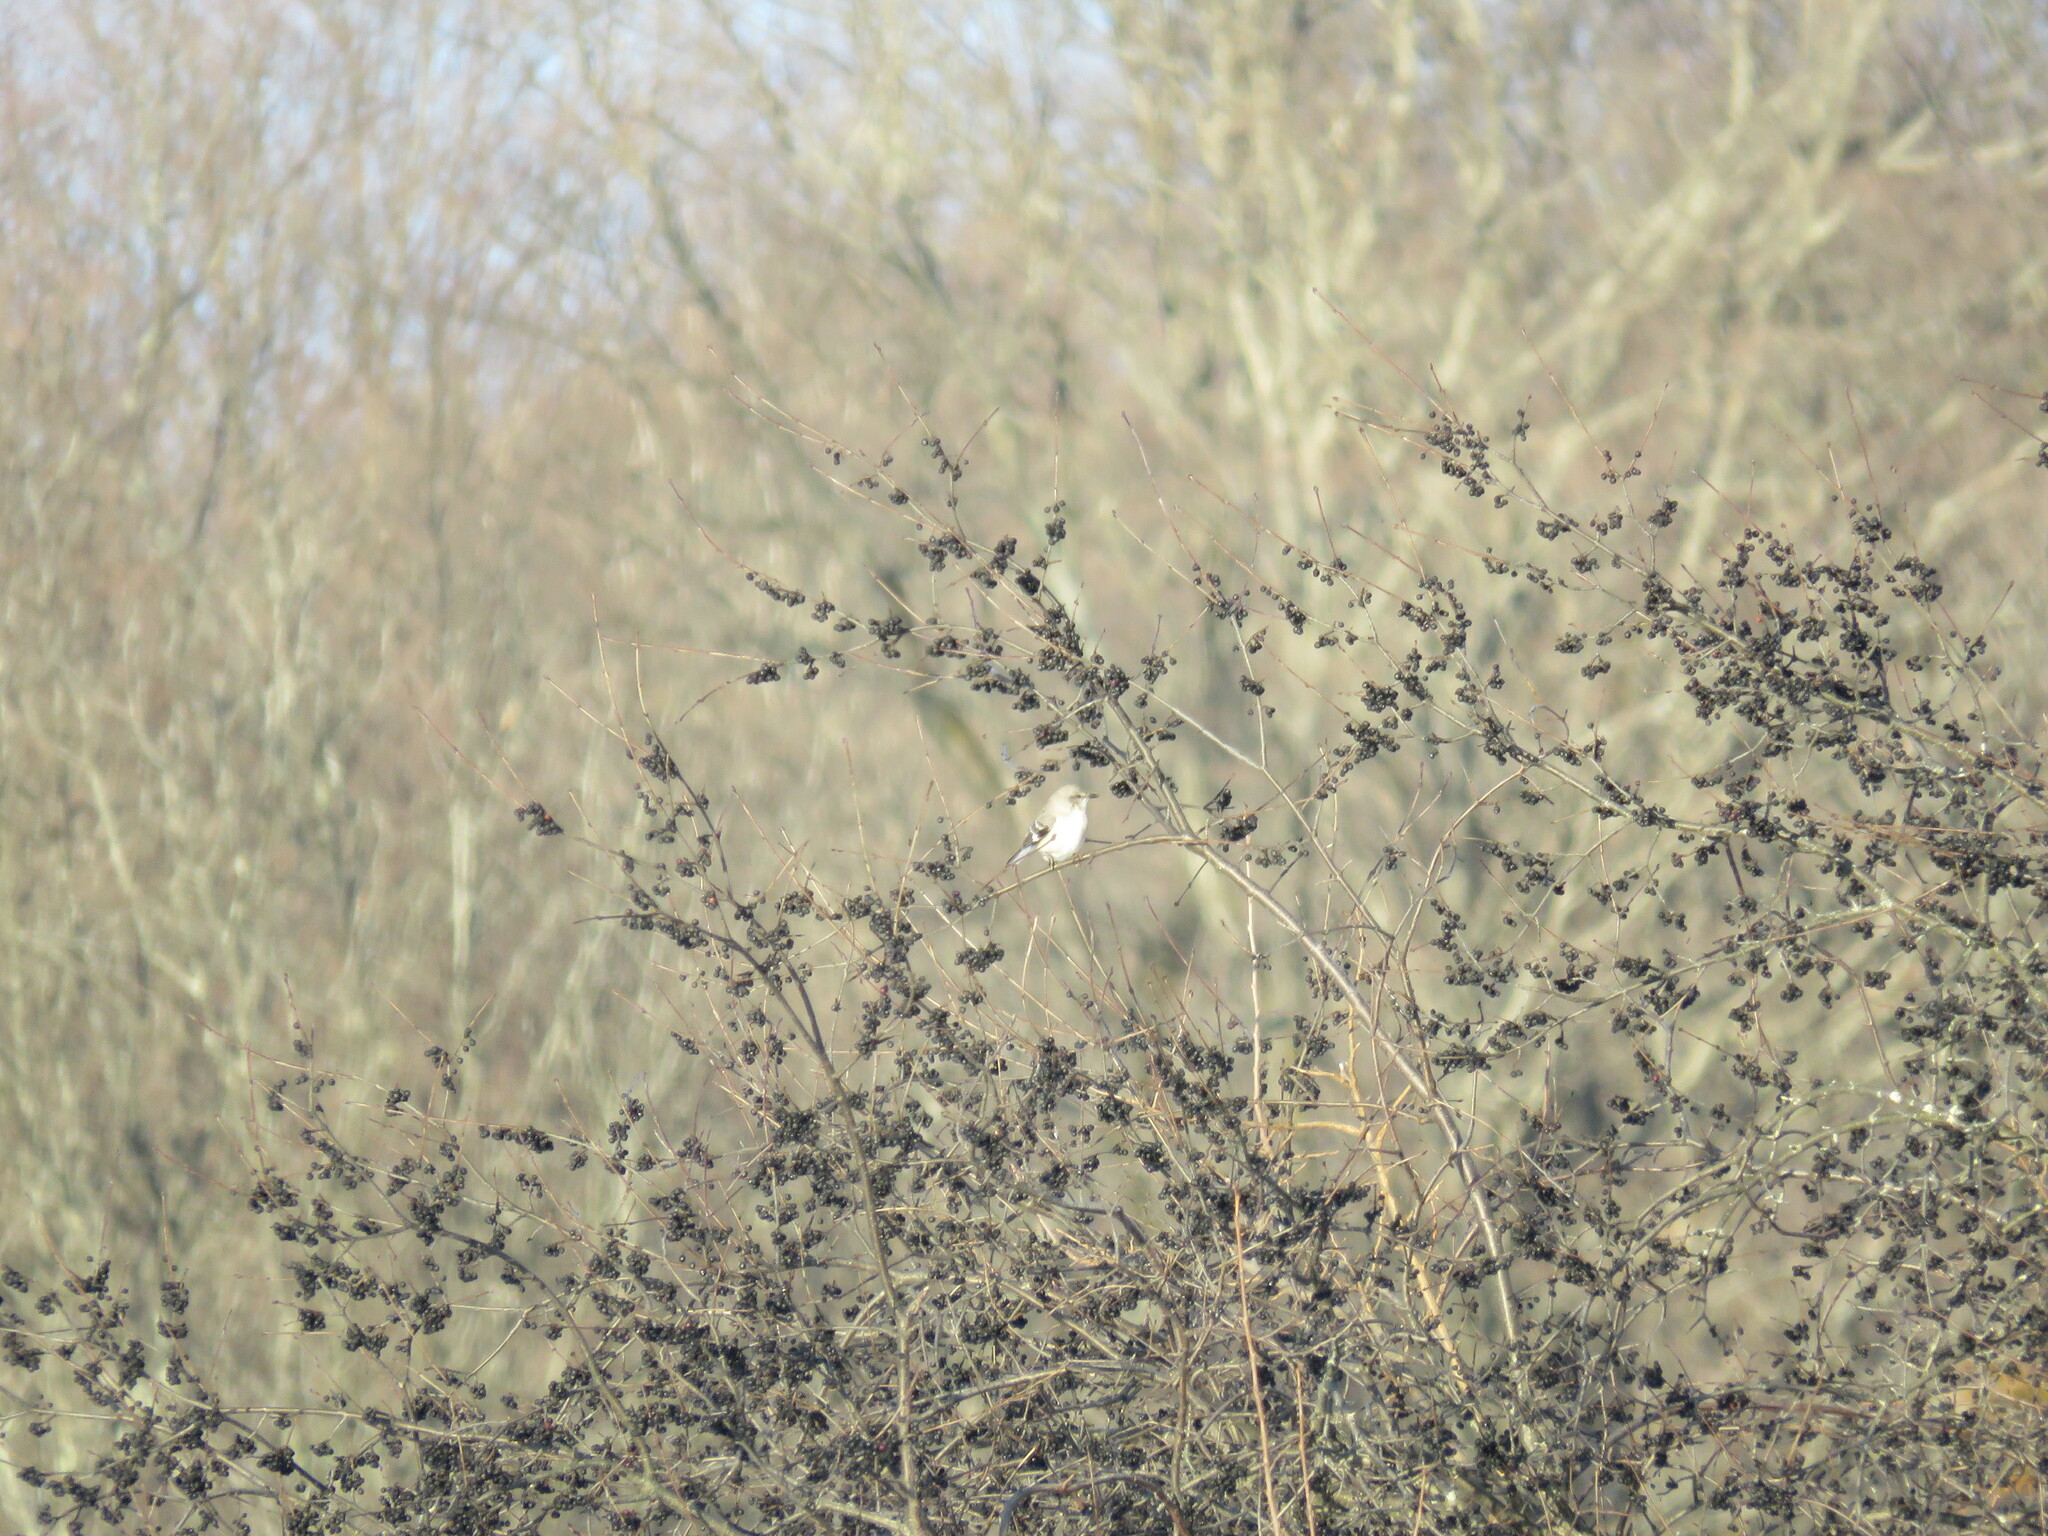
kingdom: Animalia
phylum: Chordata
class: Aves
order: Passeriformes
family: Mimidae
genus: Mimus
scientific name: Mimus polyglottos
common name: Northern mockingbird
